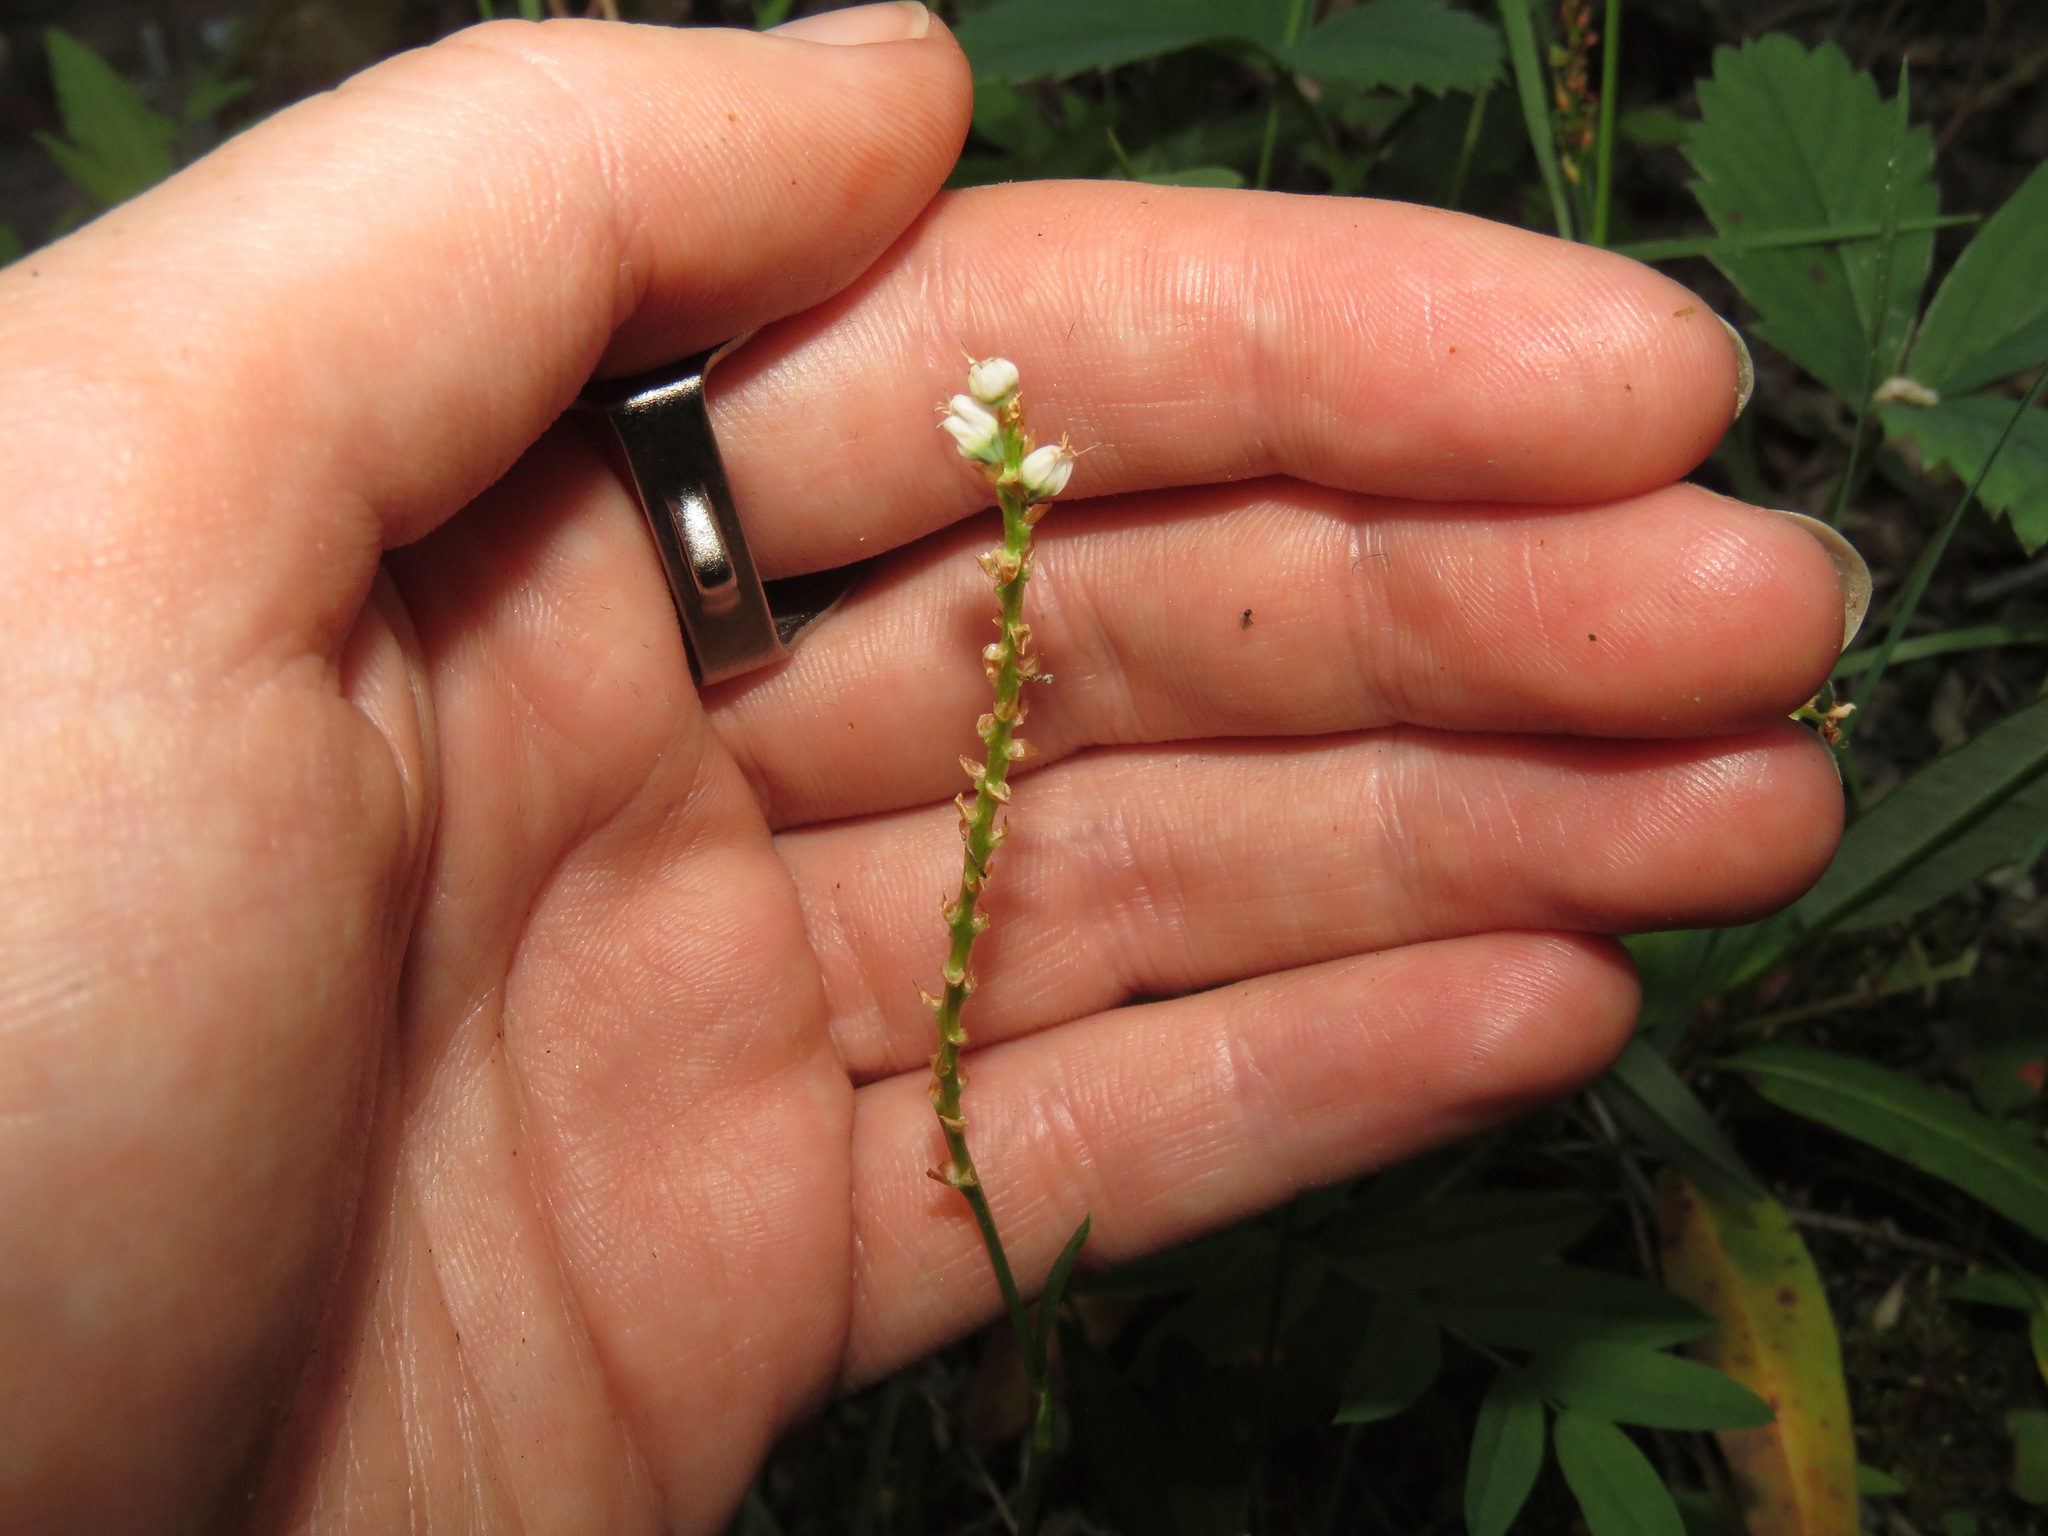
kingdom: Plantae
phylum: Tracheophyta
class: Magnoliopsida
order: Caryophyllales
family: Polygonaceae
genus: Bistorta
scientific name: Bistorta vivipara
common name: Alpine bistort
